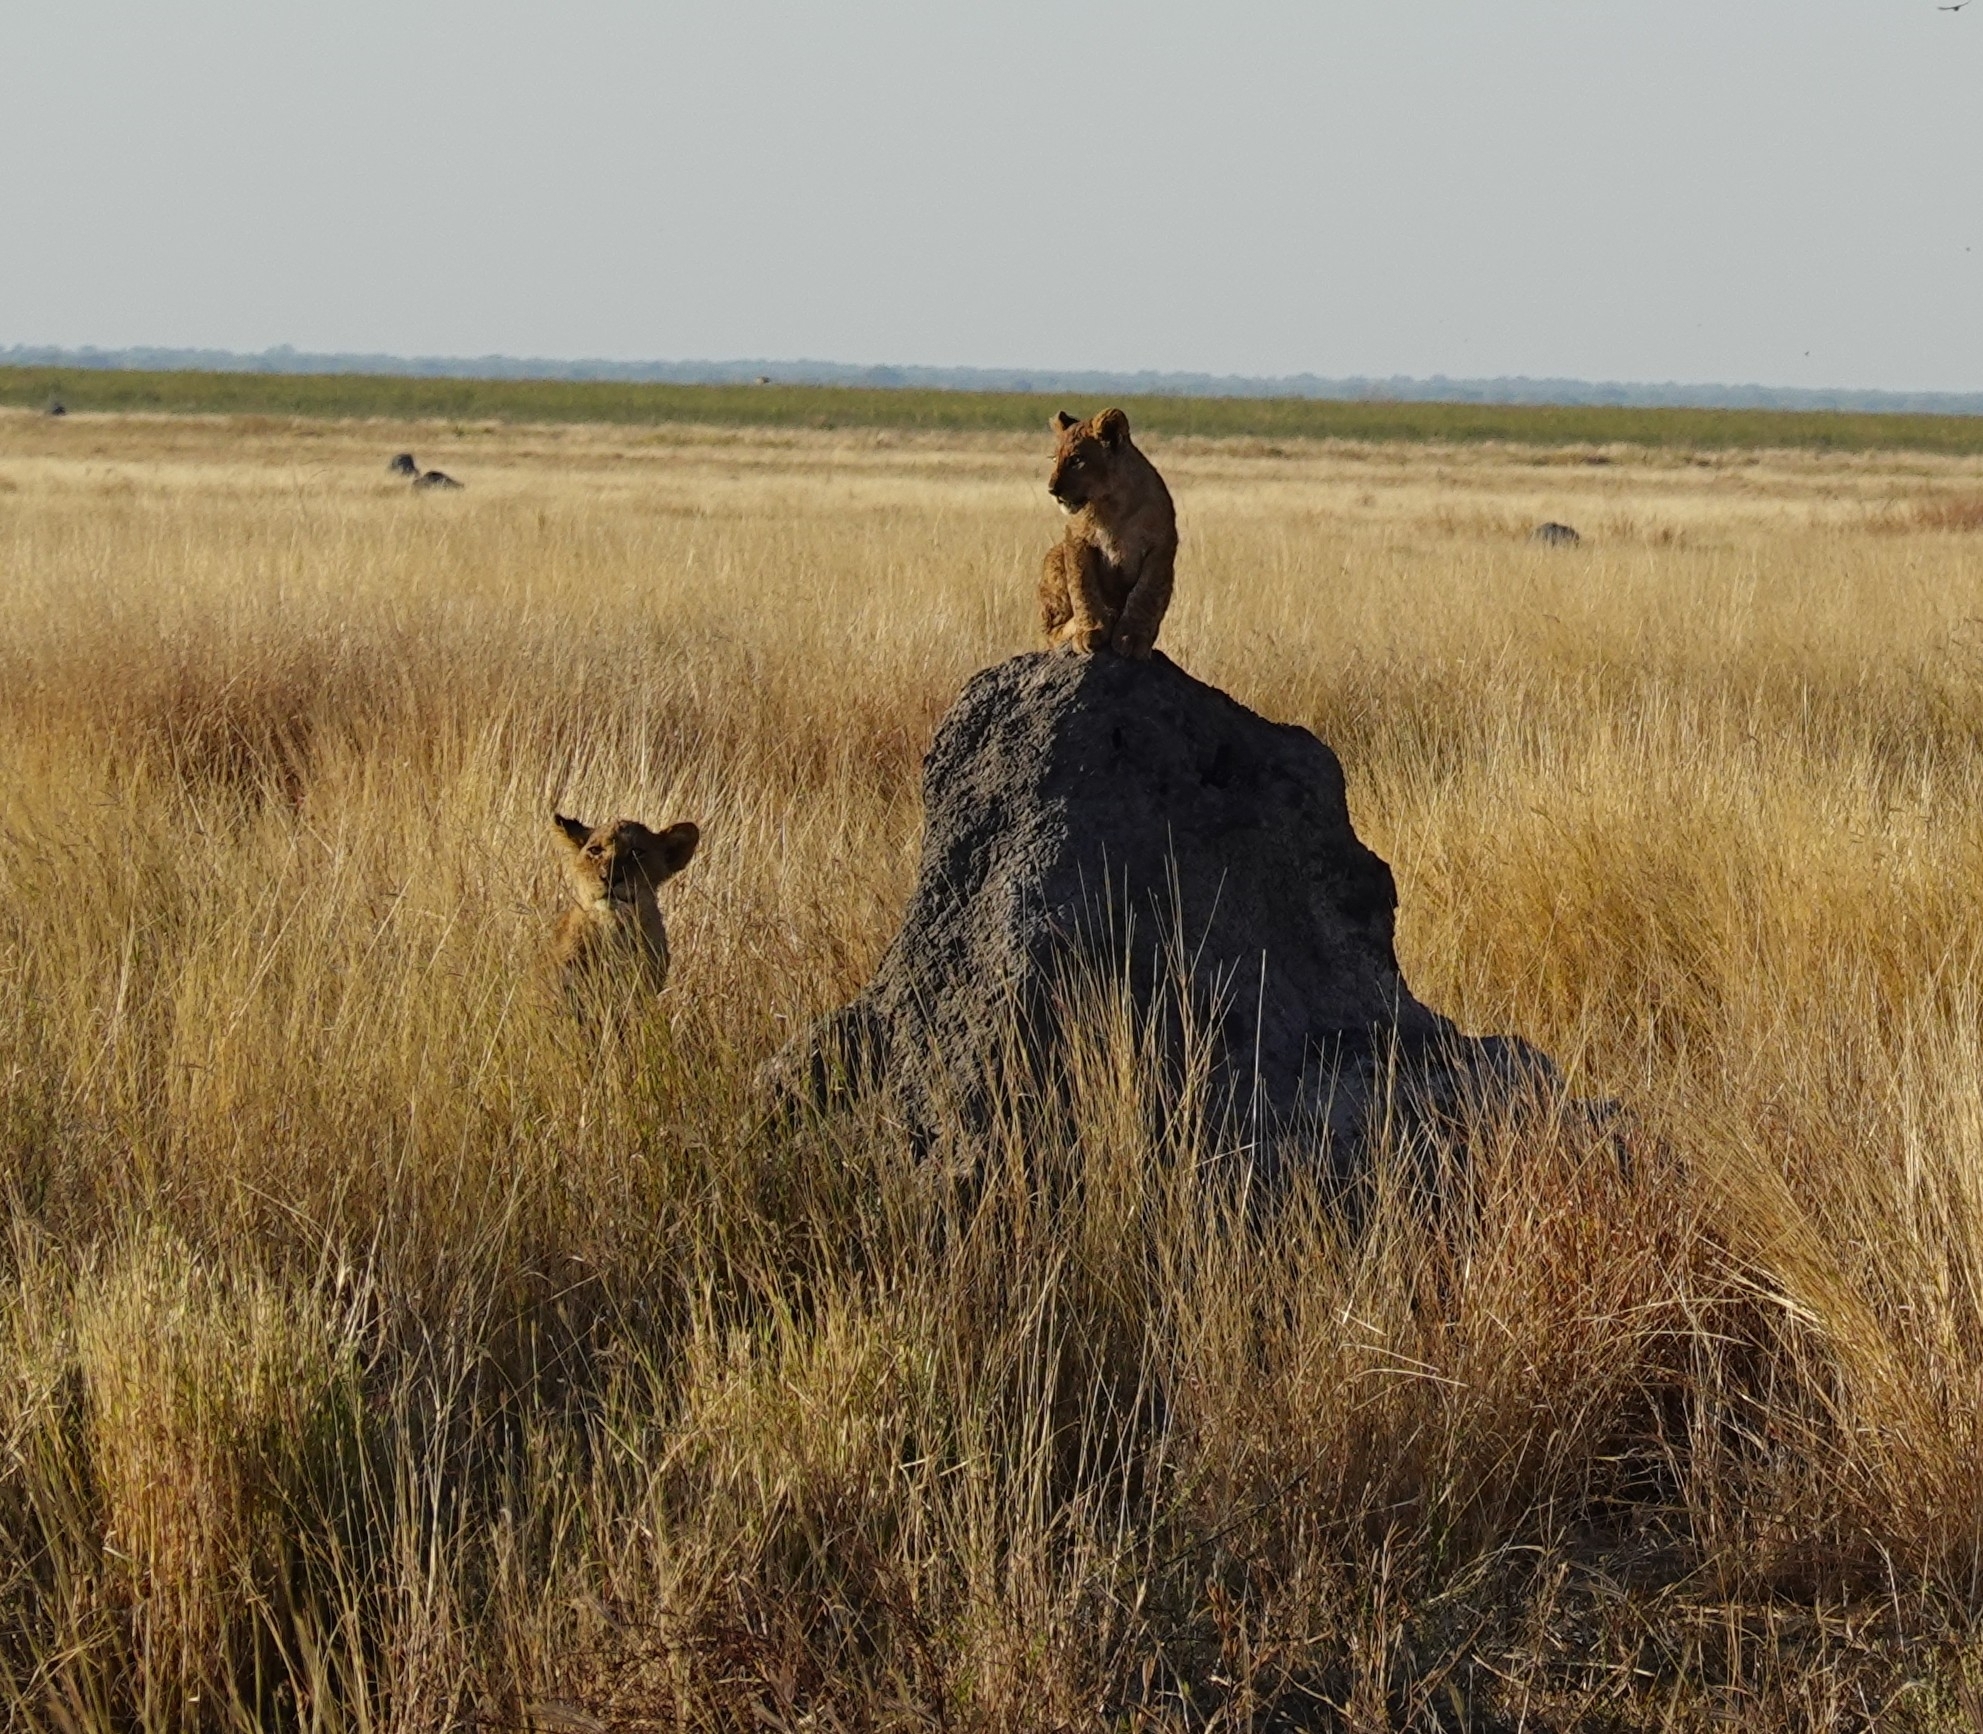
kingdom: Animalia
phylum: Chordata
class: Mammalia
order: Carnivora
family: Felidae
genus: Panthera
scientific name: Panthera leo
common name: Lion
